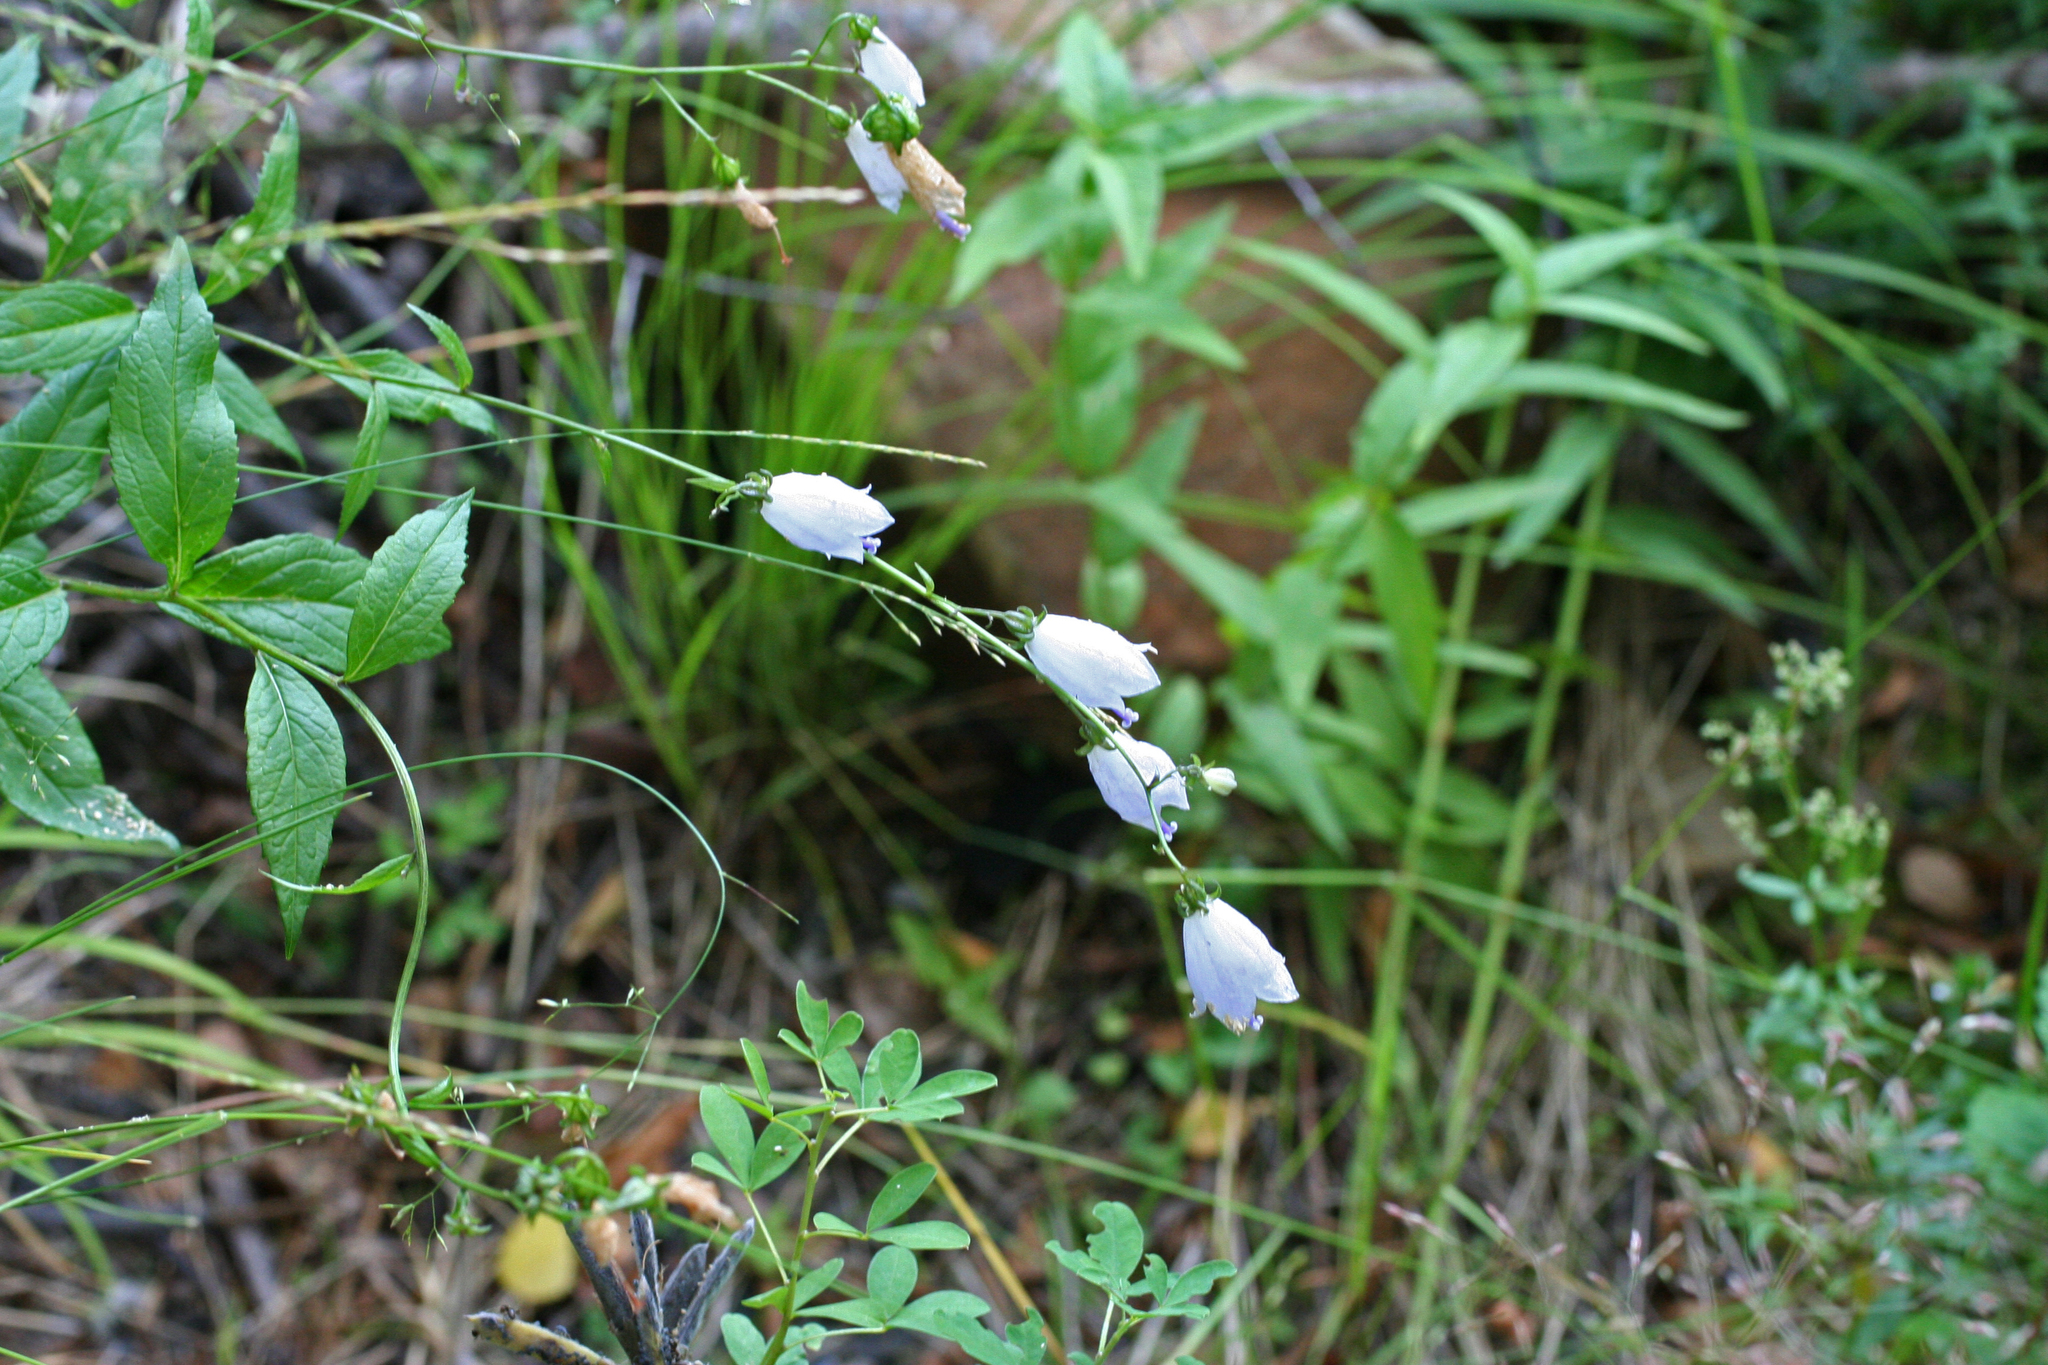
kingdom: Plantae
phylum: Tracheophyta
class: Magnoliopsida
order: Asterales
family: Campanulaceae
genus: Adenophora
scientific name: Adenophora liliifolia
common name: Lilyleaf ladybells
